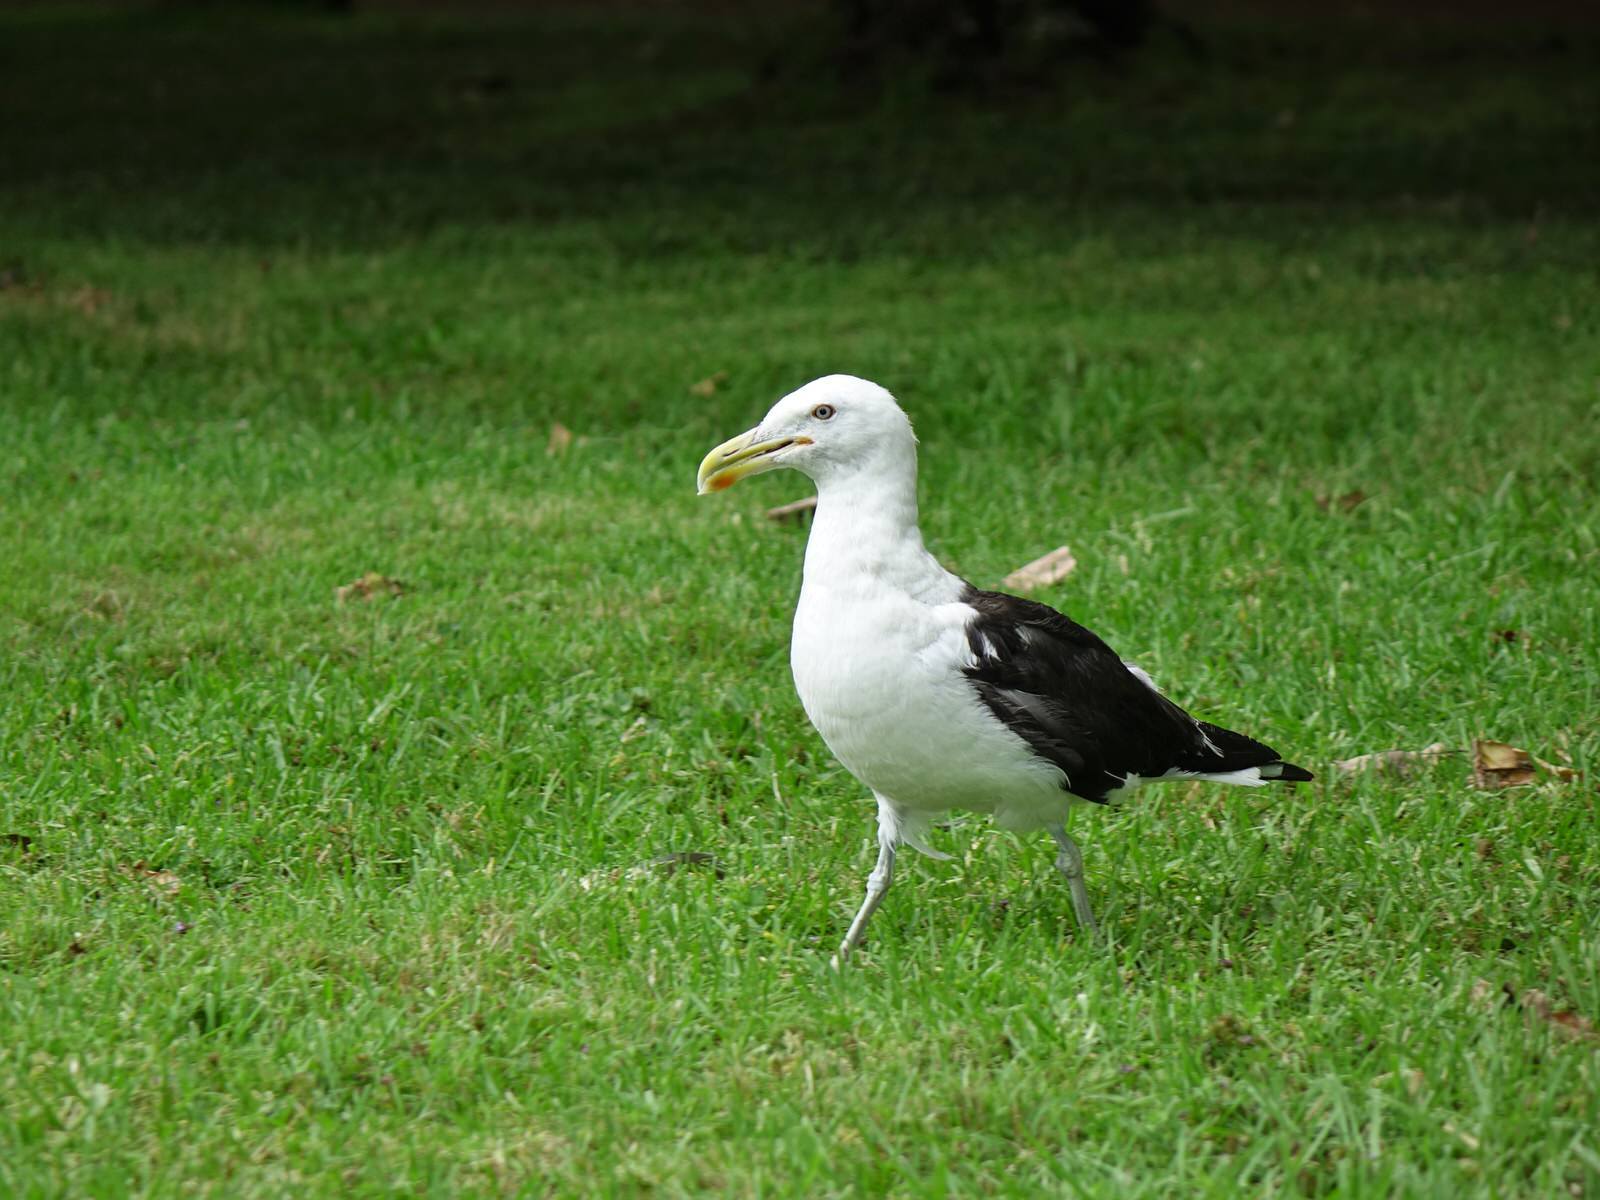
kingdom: Animalia
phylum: Chordata
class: Aves
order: Charadriiformes
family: Laridae
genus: Larus
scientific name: Larus dominicanus
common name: Kelp gull
